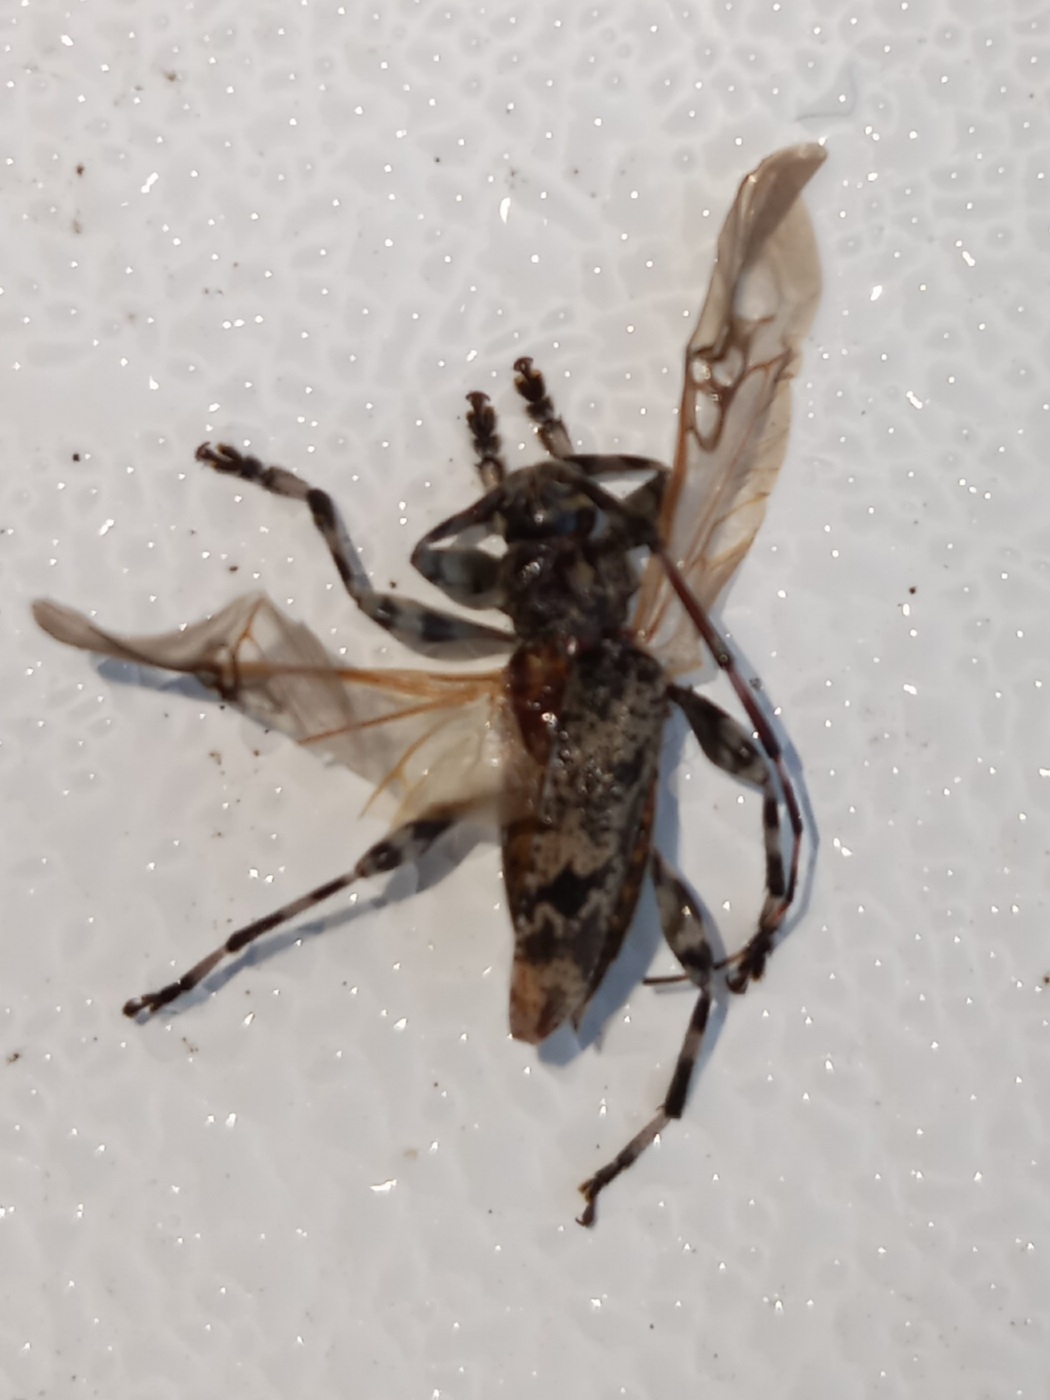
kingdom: Animalia
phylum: Arthropoda
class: Insecta
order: Coleoptera
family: Cerambycidae
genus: Graphisurus
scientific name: Graphisurus fasciatus
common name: Banded graphisurus
